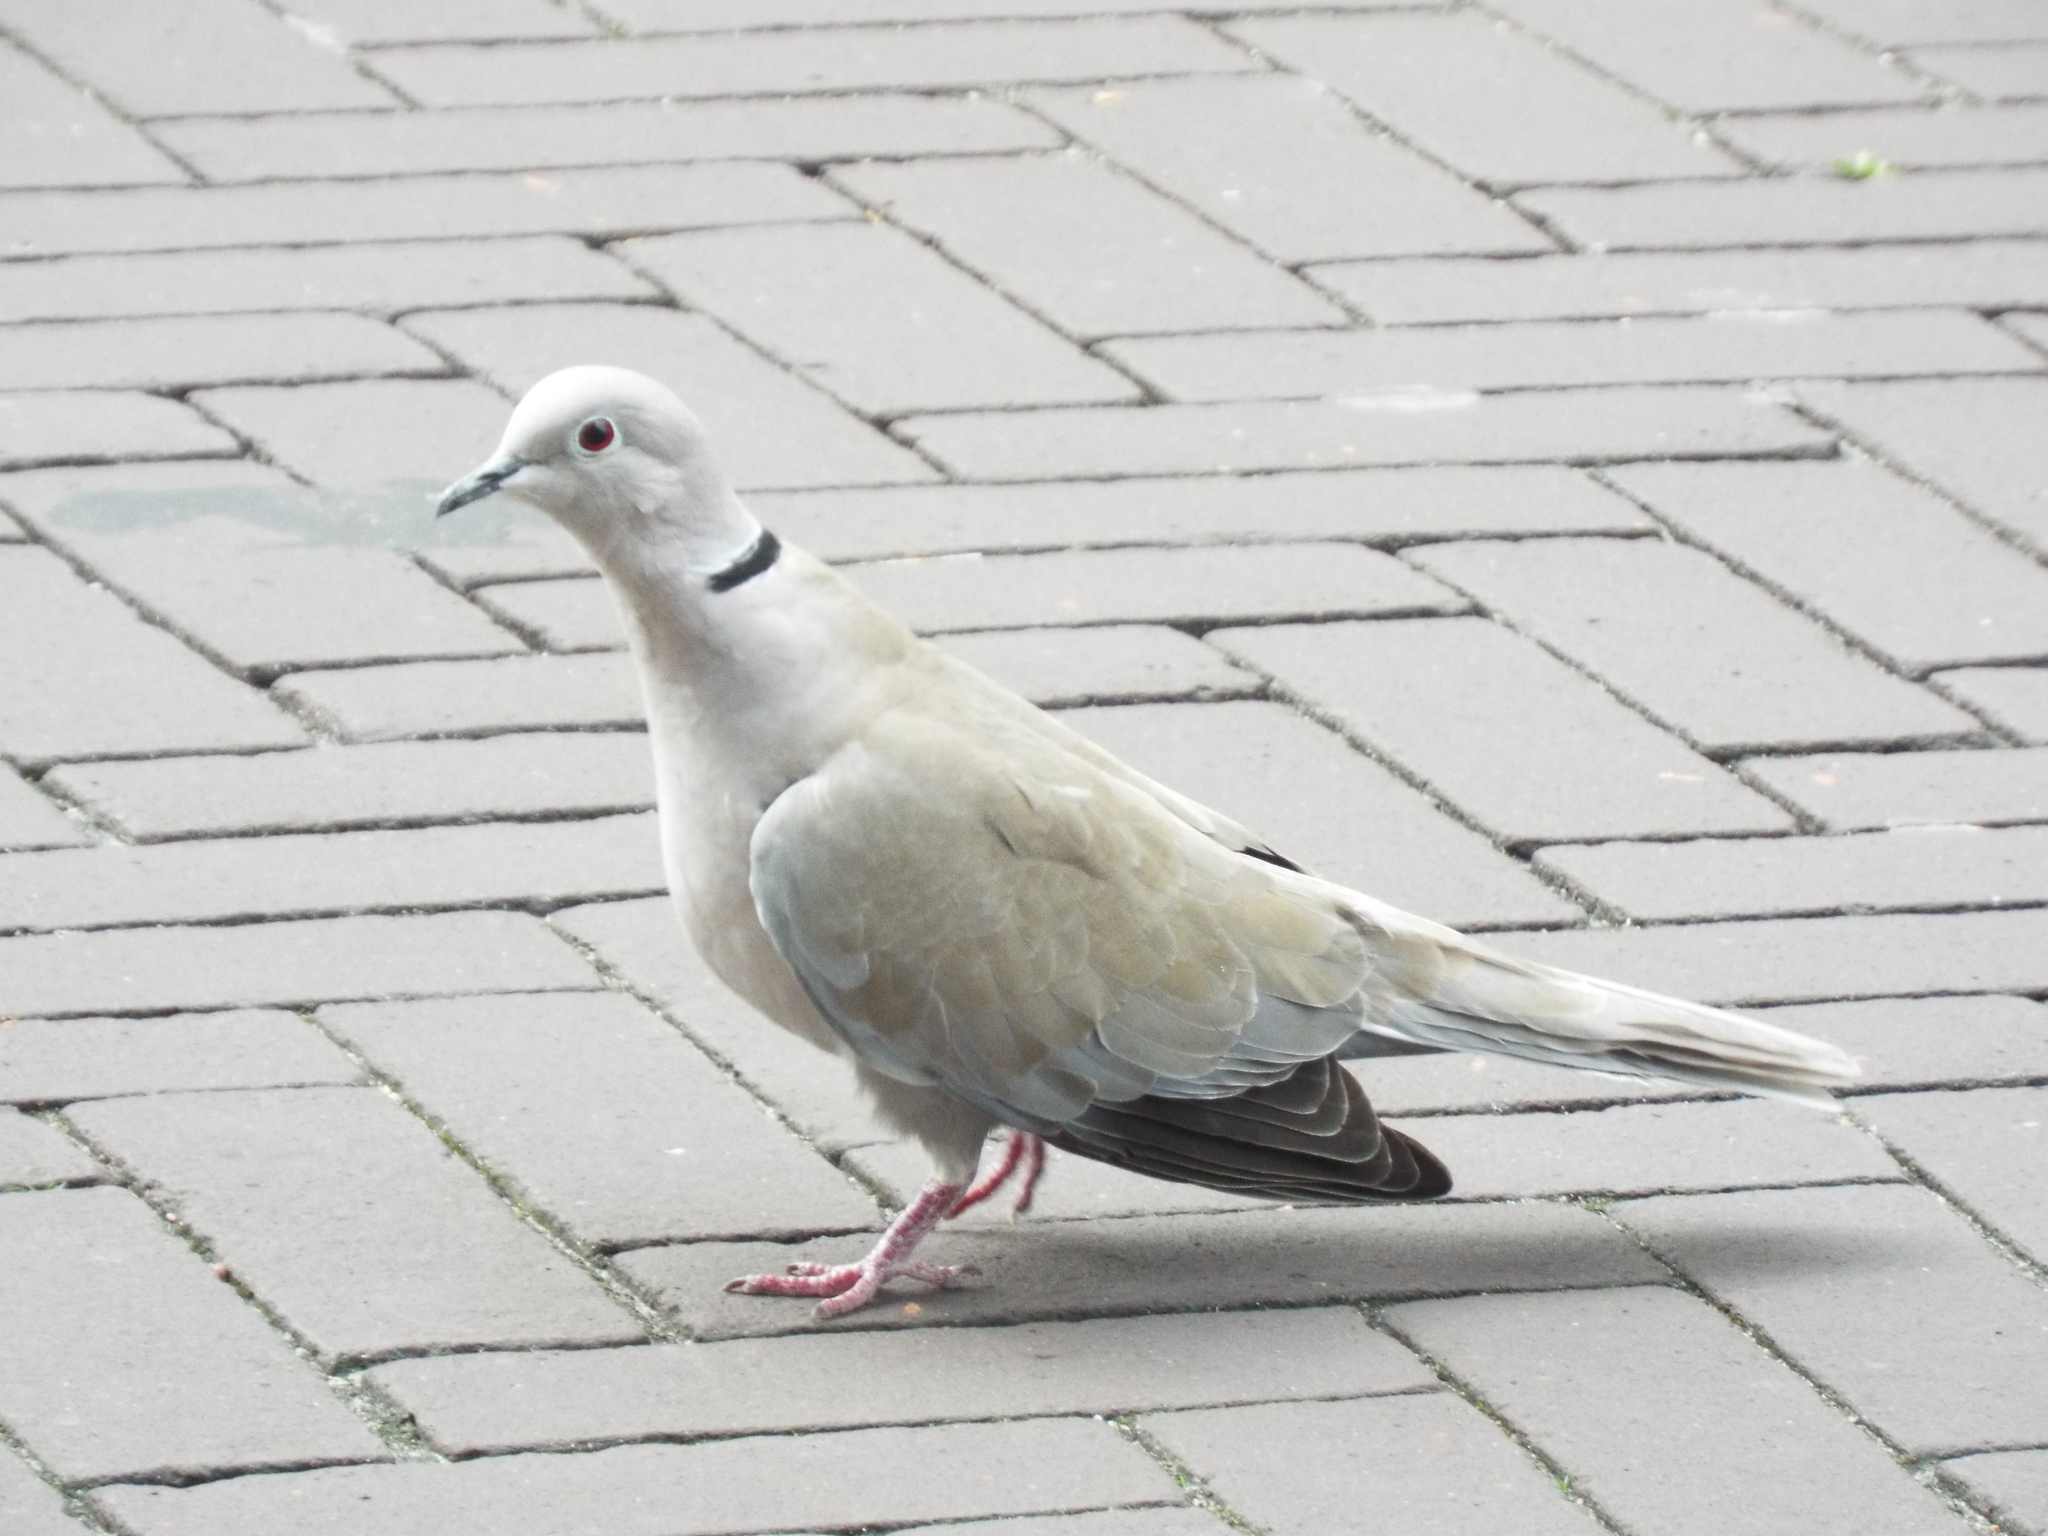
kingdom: Animalia
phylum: Chordata
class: Aves
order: Columbiformes
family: Columbidae
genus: Streptopelia
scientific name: Streptopelia decaocto
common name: Eurasian collared dove
